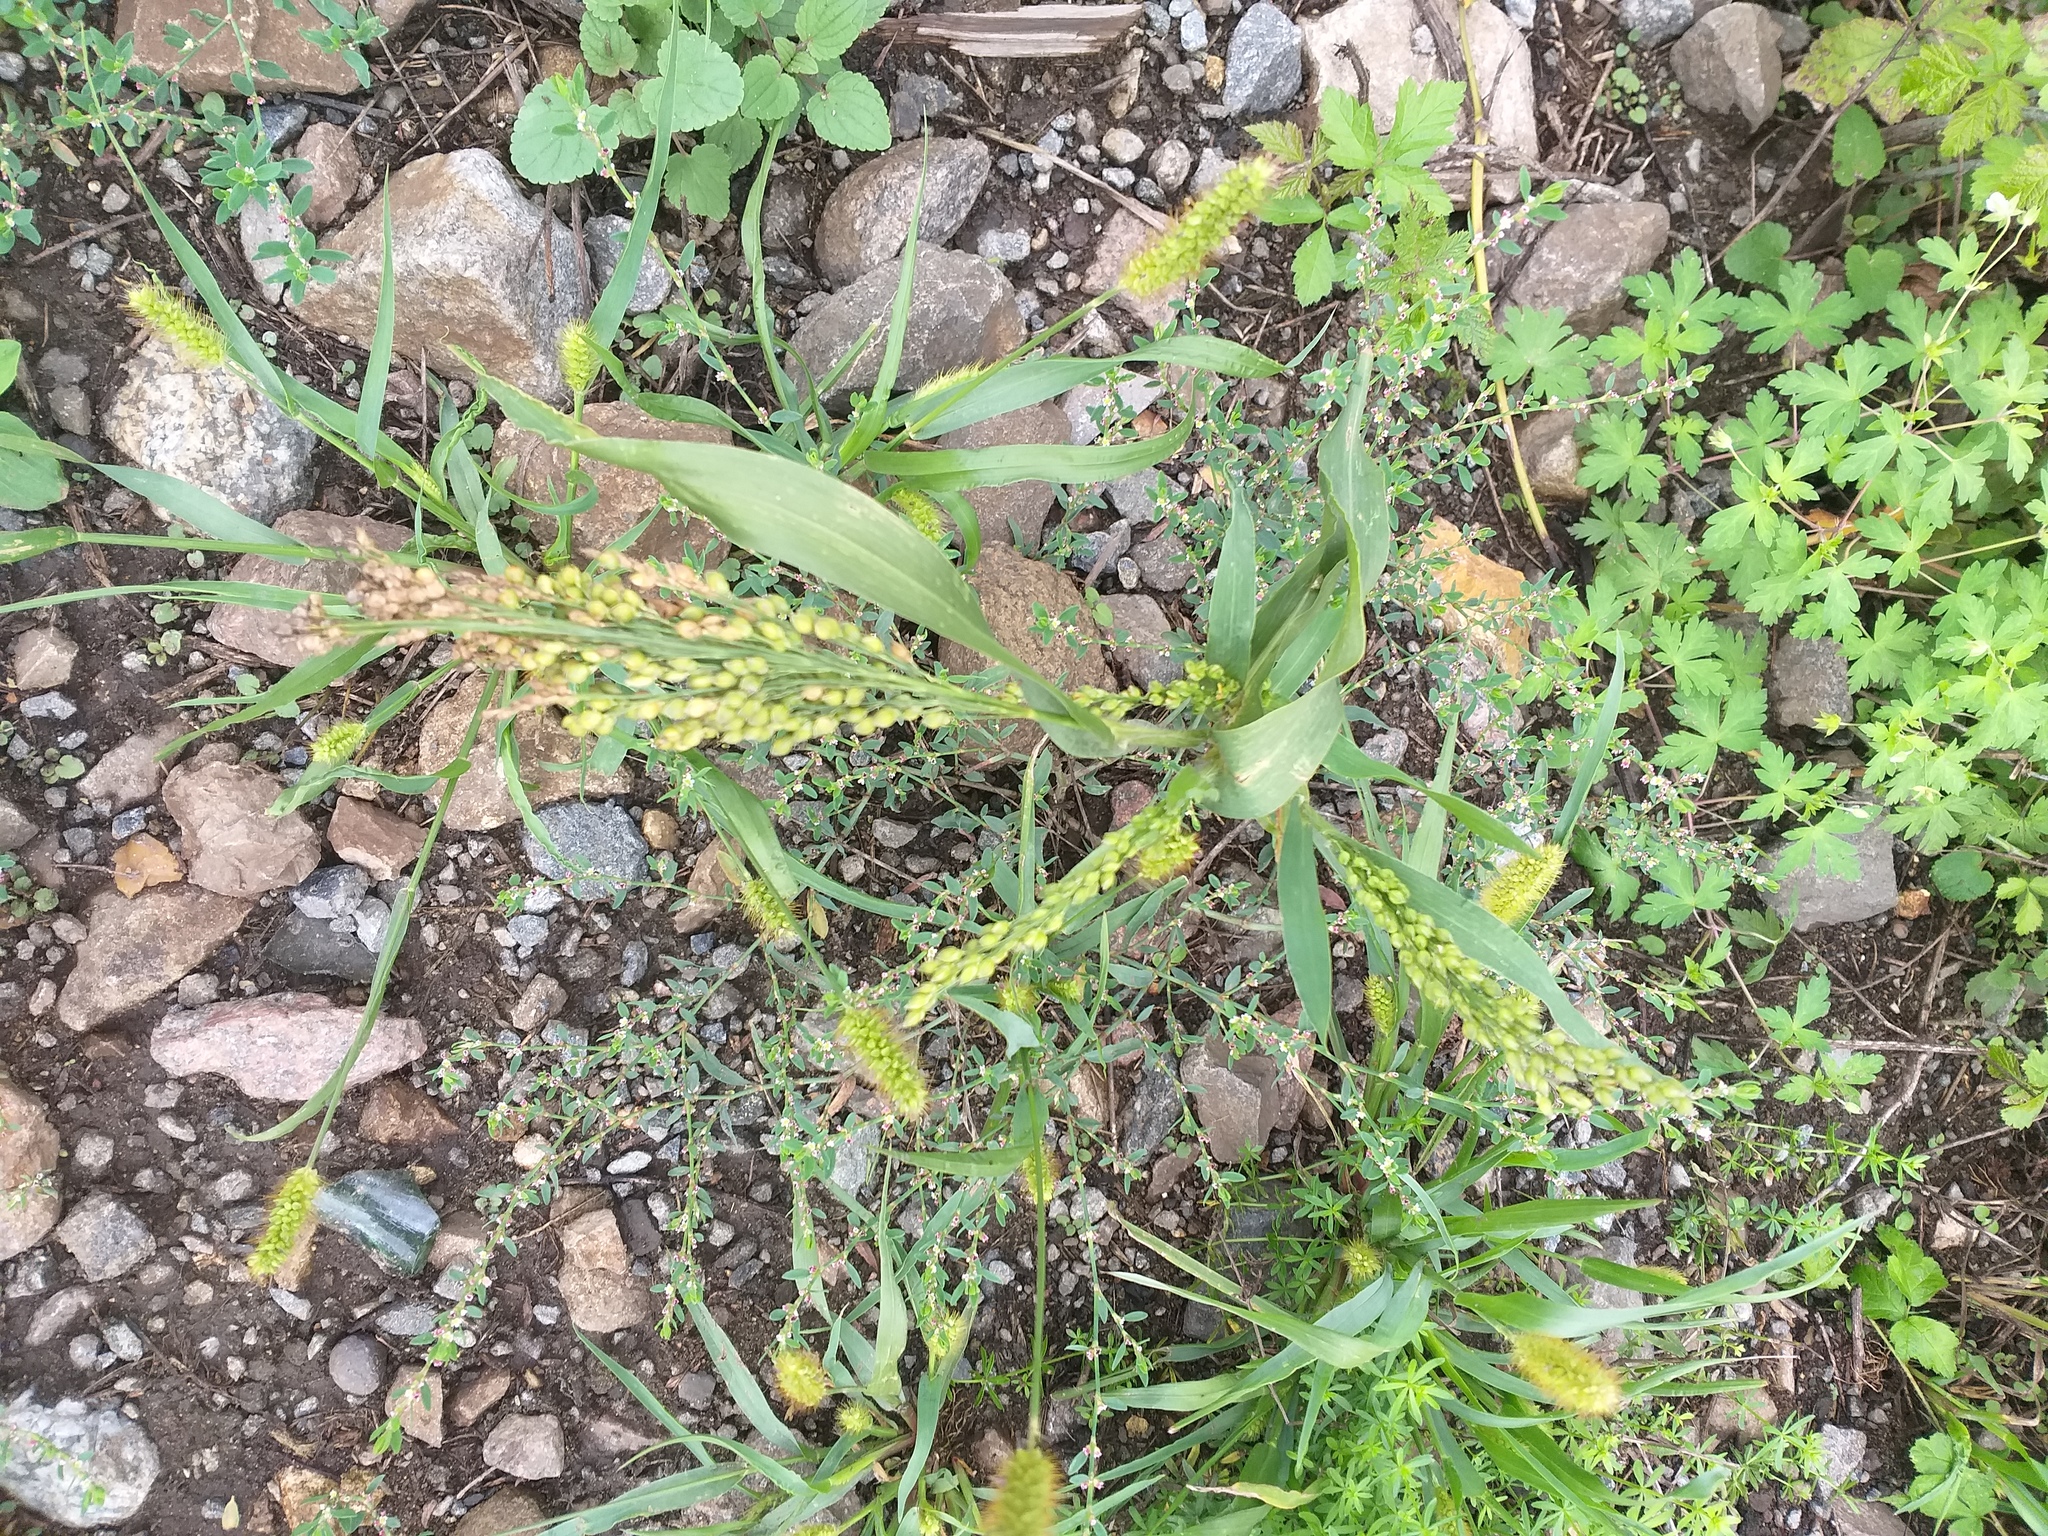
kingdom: Plantae
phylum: Tracheophyta
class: Liliopsida
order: Poales
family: Poaceae
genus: Panicum
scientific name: Panicum miliaceum
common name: Common millet
